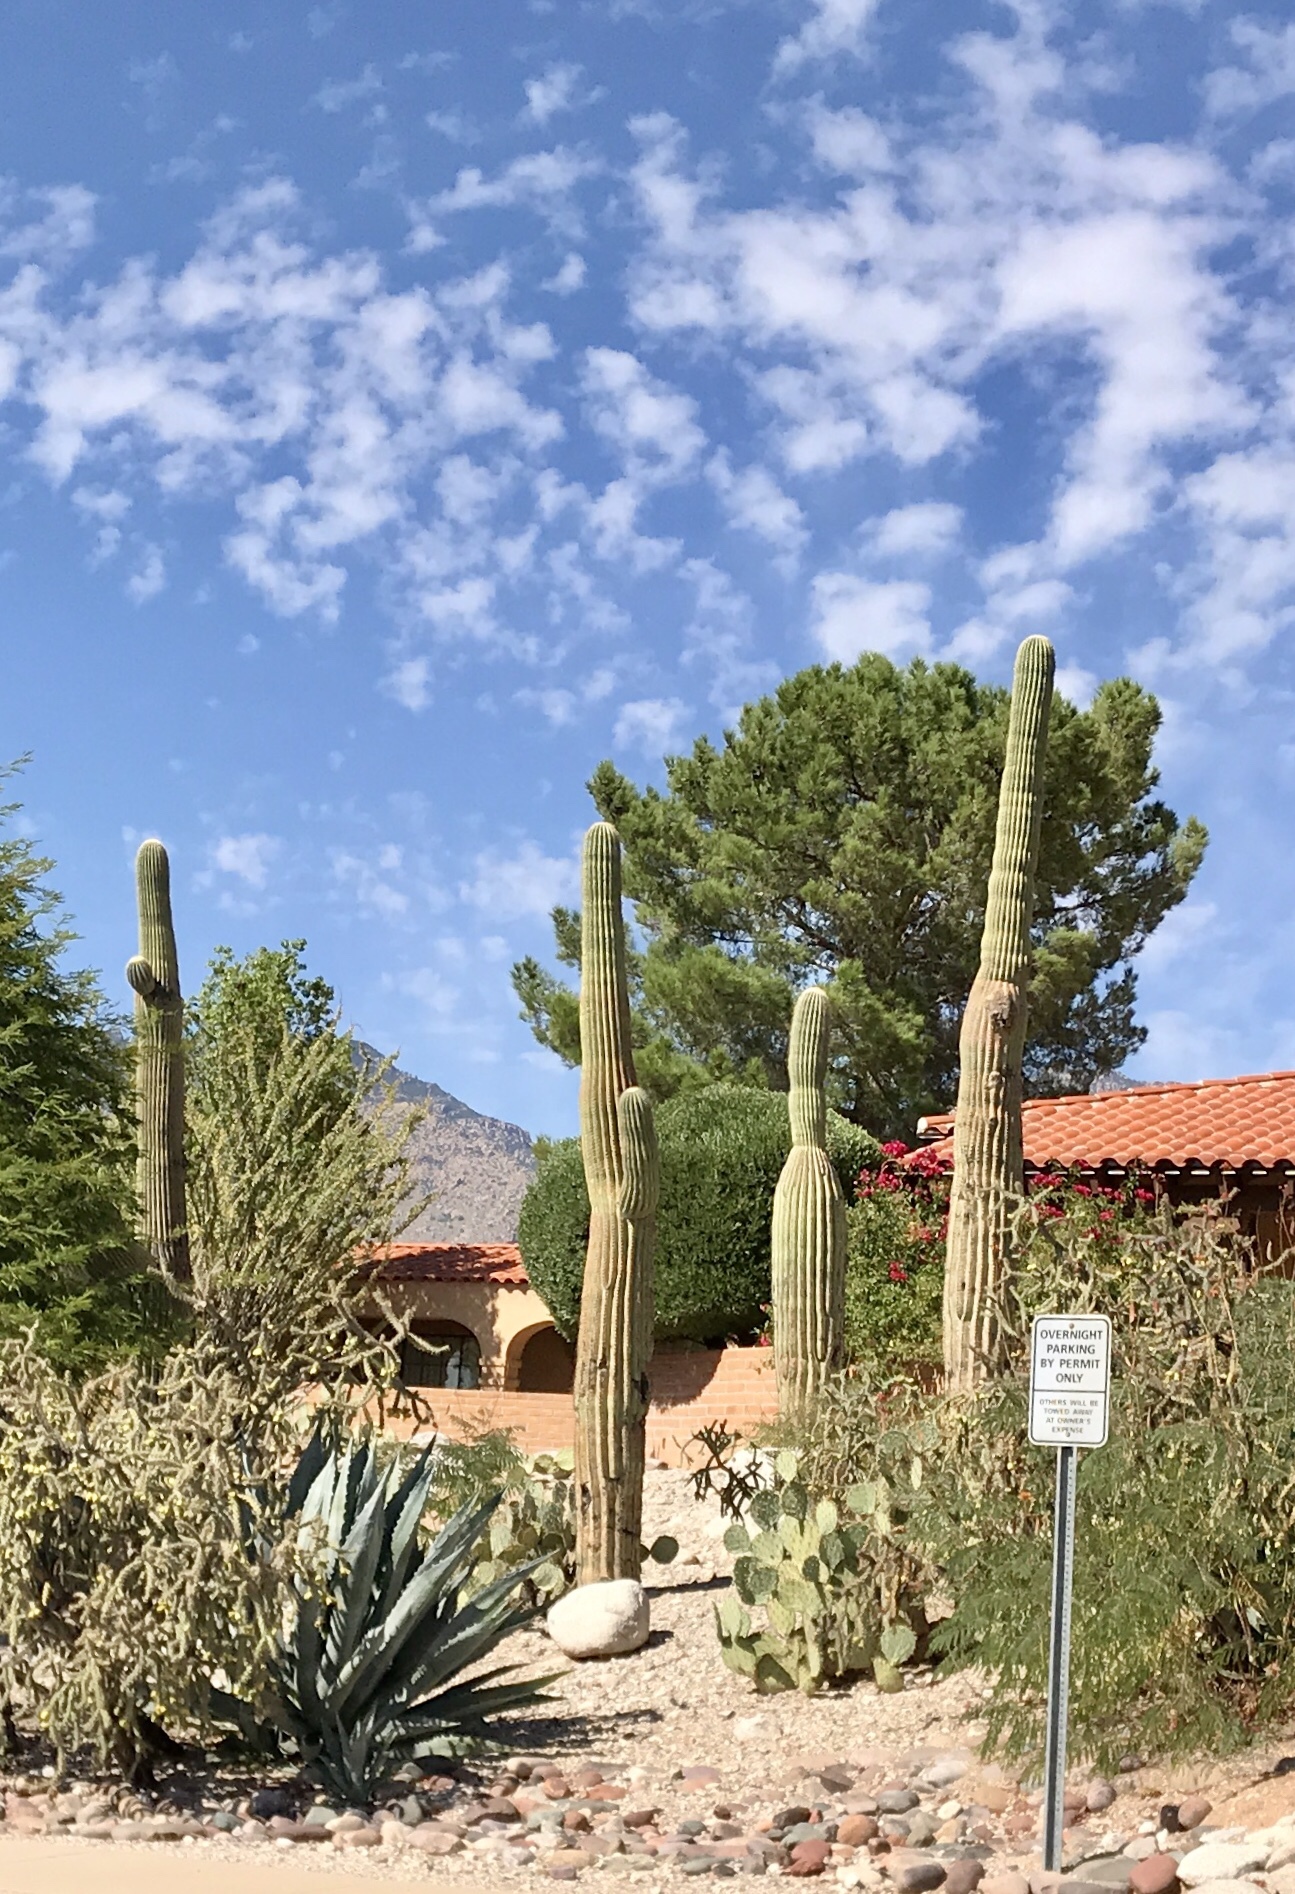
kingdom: Plantae
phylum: Tracheophyta
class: Magnoliopsida
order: Caryophyllales
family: Cactaceae
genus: Carnegiea
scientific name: Carnegiea gigantea
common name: Saguaro
